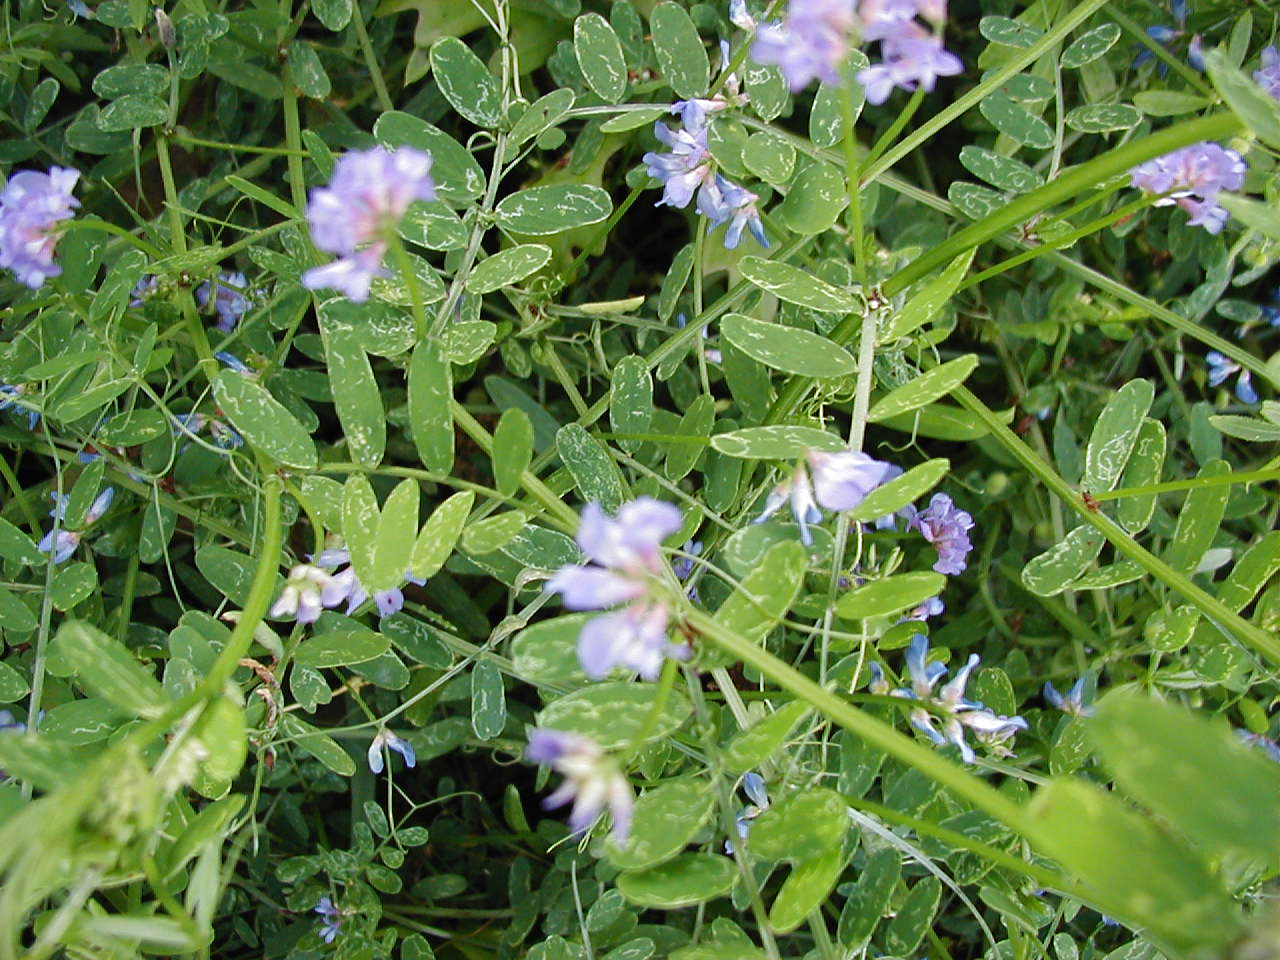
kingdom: Plantae
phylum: Tracheophyta
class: Magnoliopsida
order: Fabales
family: Fabaceae
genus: Vicia
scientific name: Vicia ludoviciana
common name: Louisiana vetch
